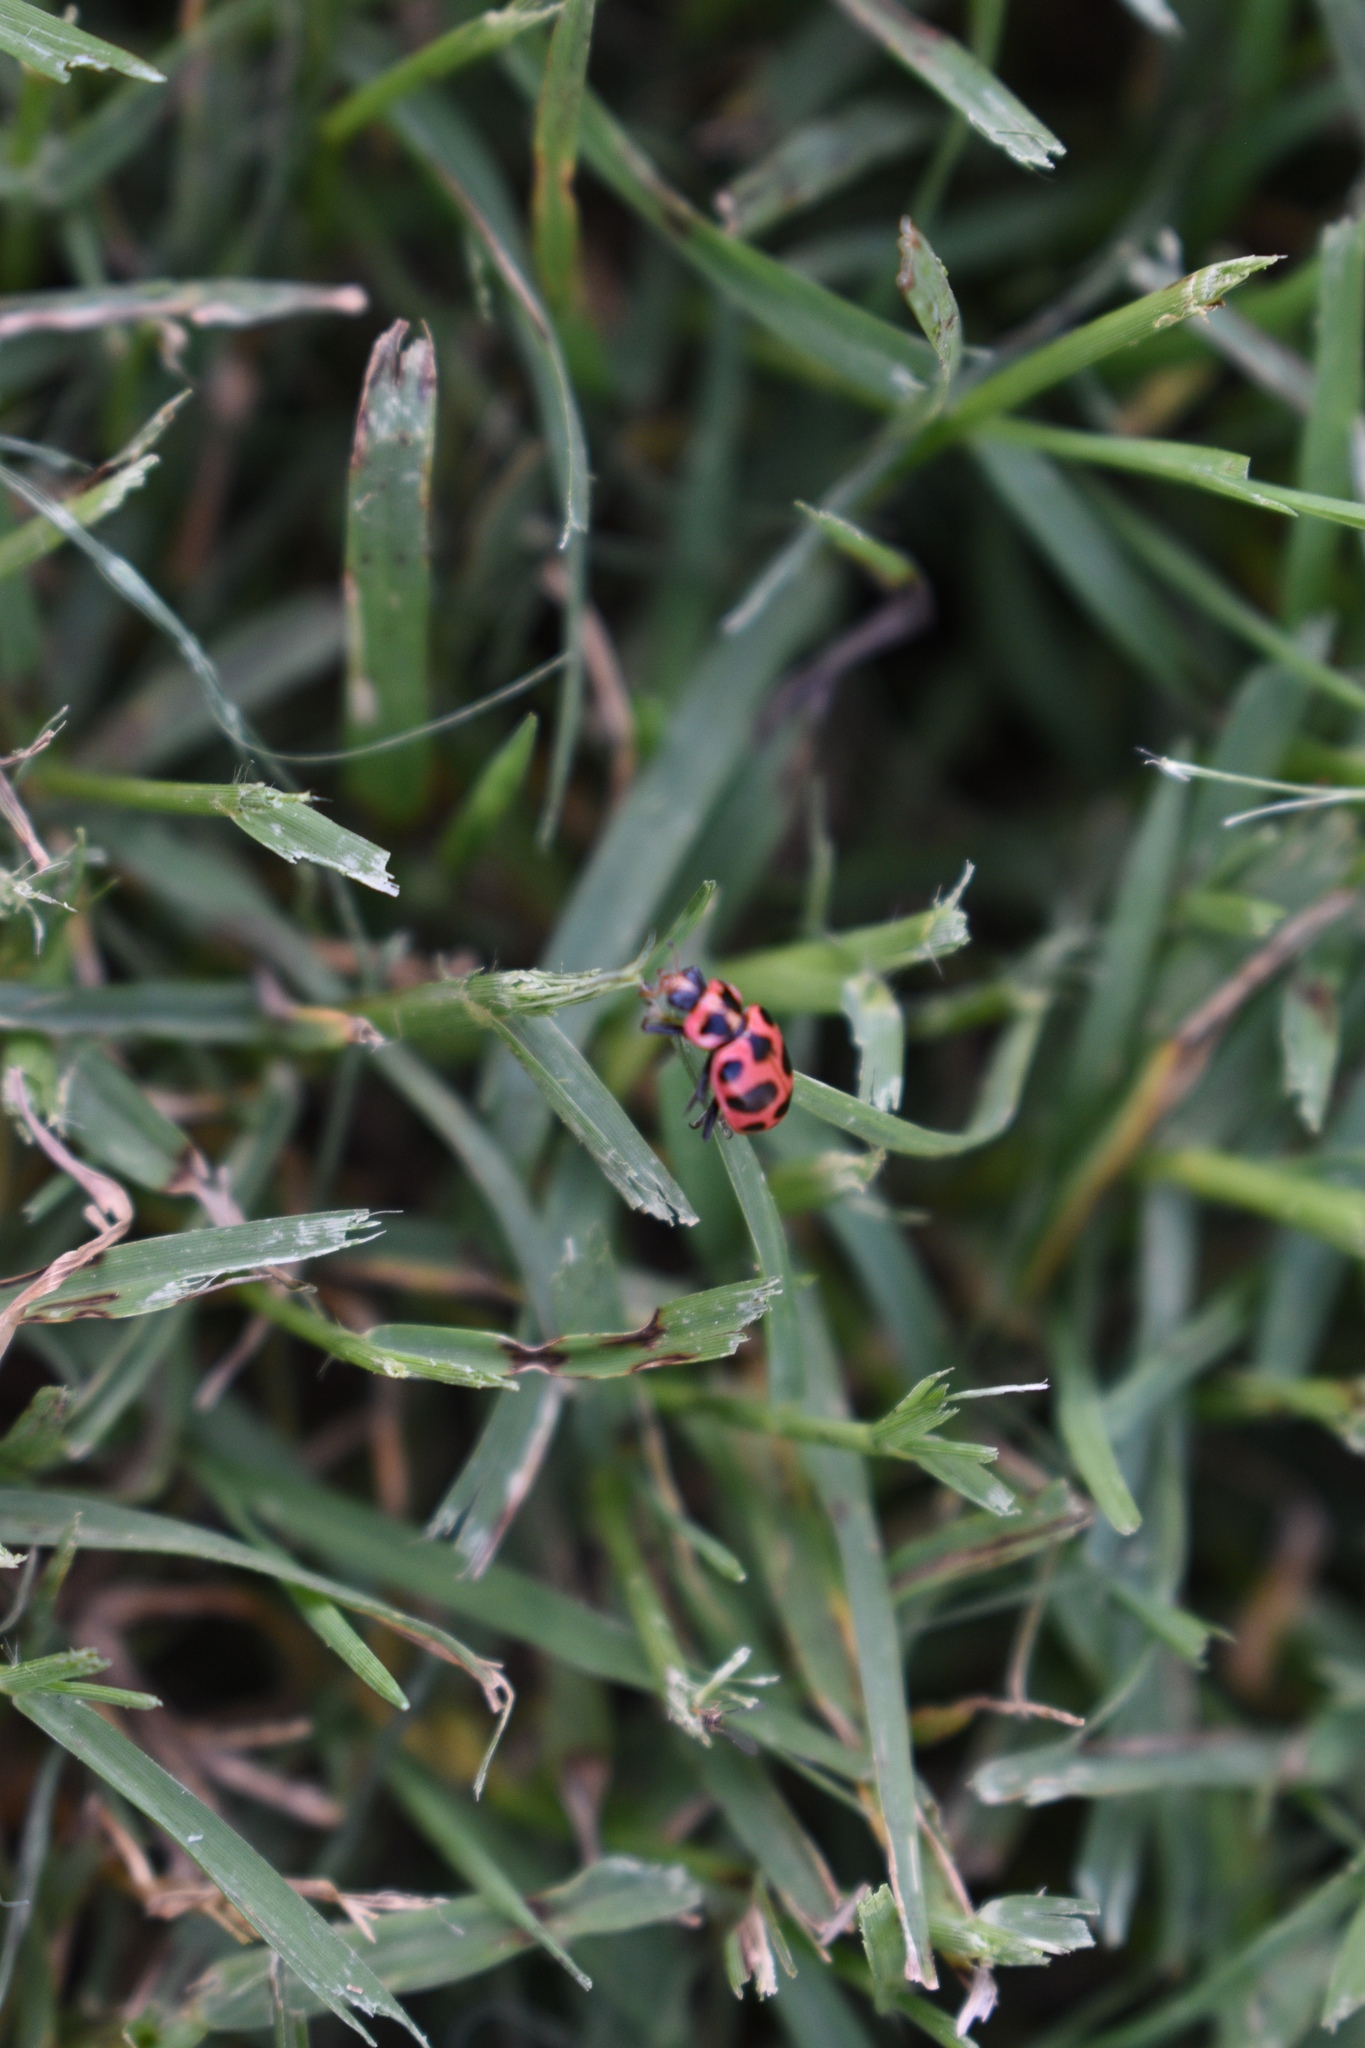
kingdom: Animalia
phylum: Arthropoda
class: Insecta
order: Coleoptera
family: Coccinellidae
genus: Coleomegilla
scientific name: Coleomegilla maculata
